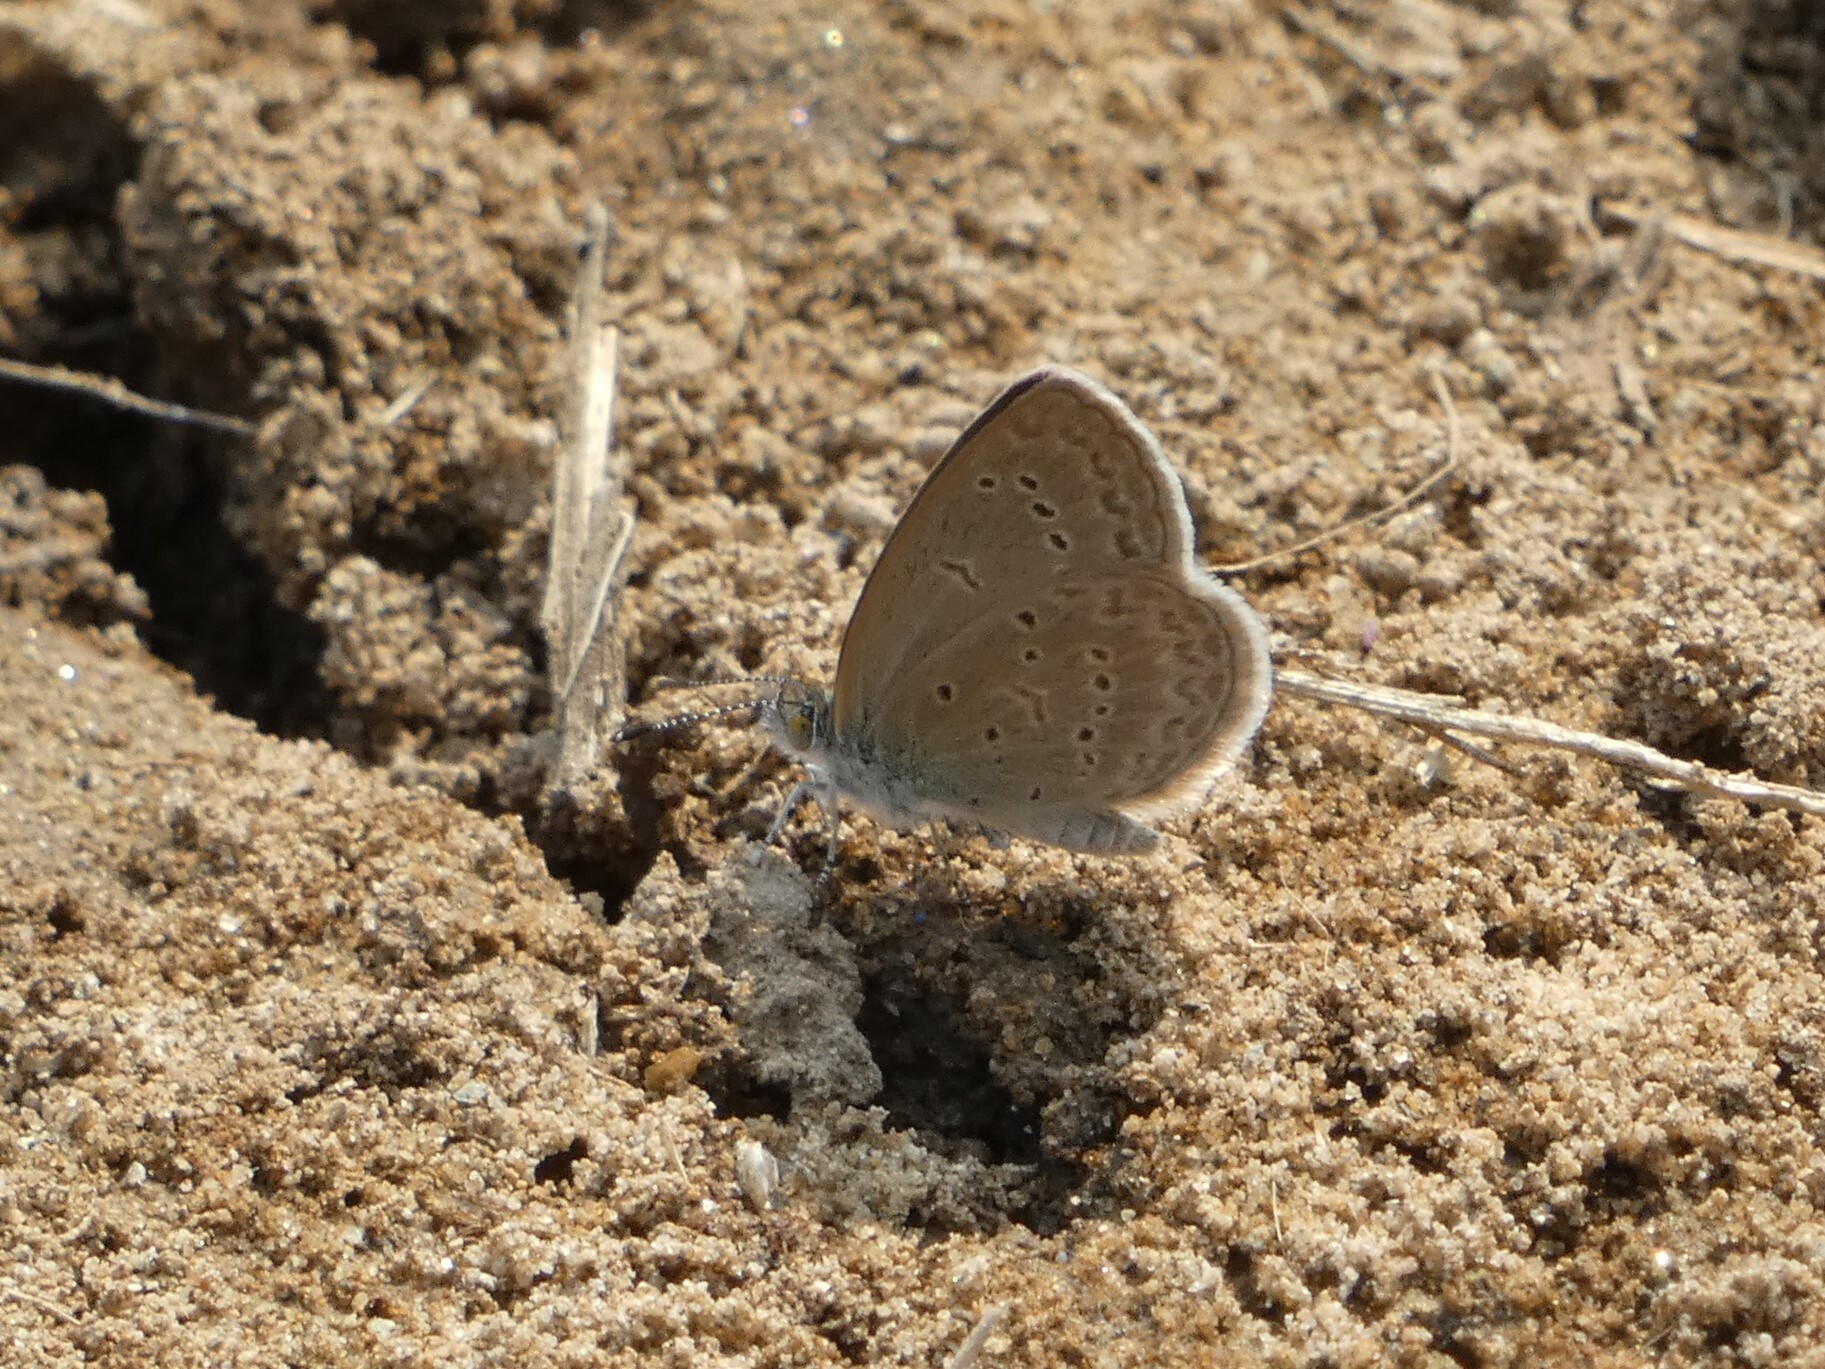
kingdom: Animalia
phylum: Arthropoda
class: Insecta
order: Lepidoptera
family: Lycaenidae
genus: Zizina
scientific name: Zizina otis
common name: Lesser grass blue
